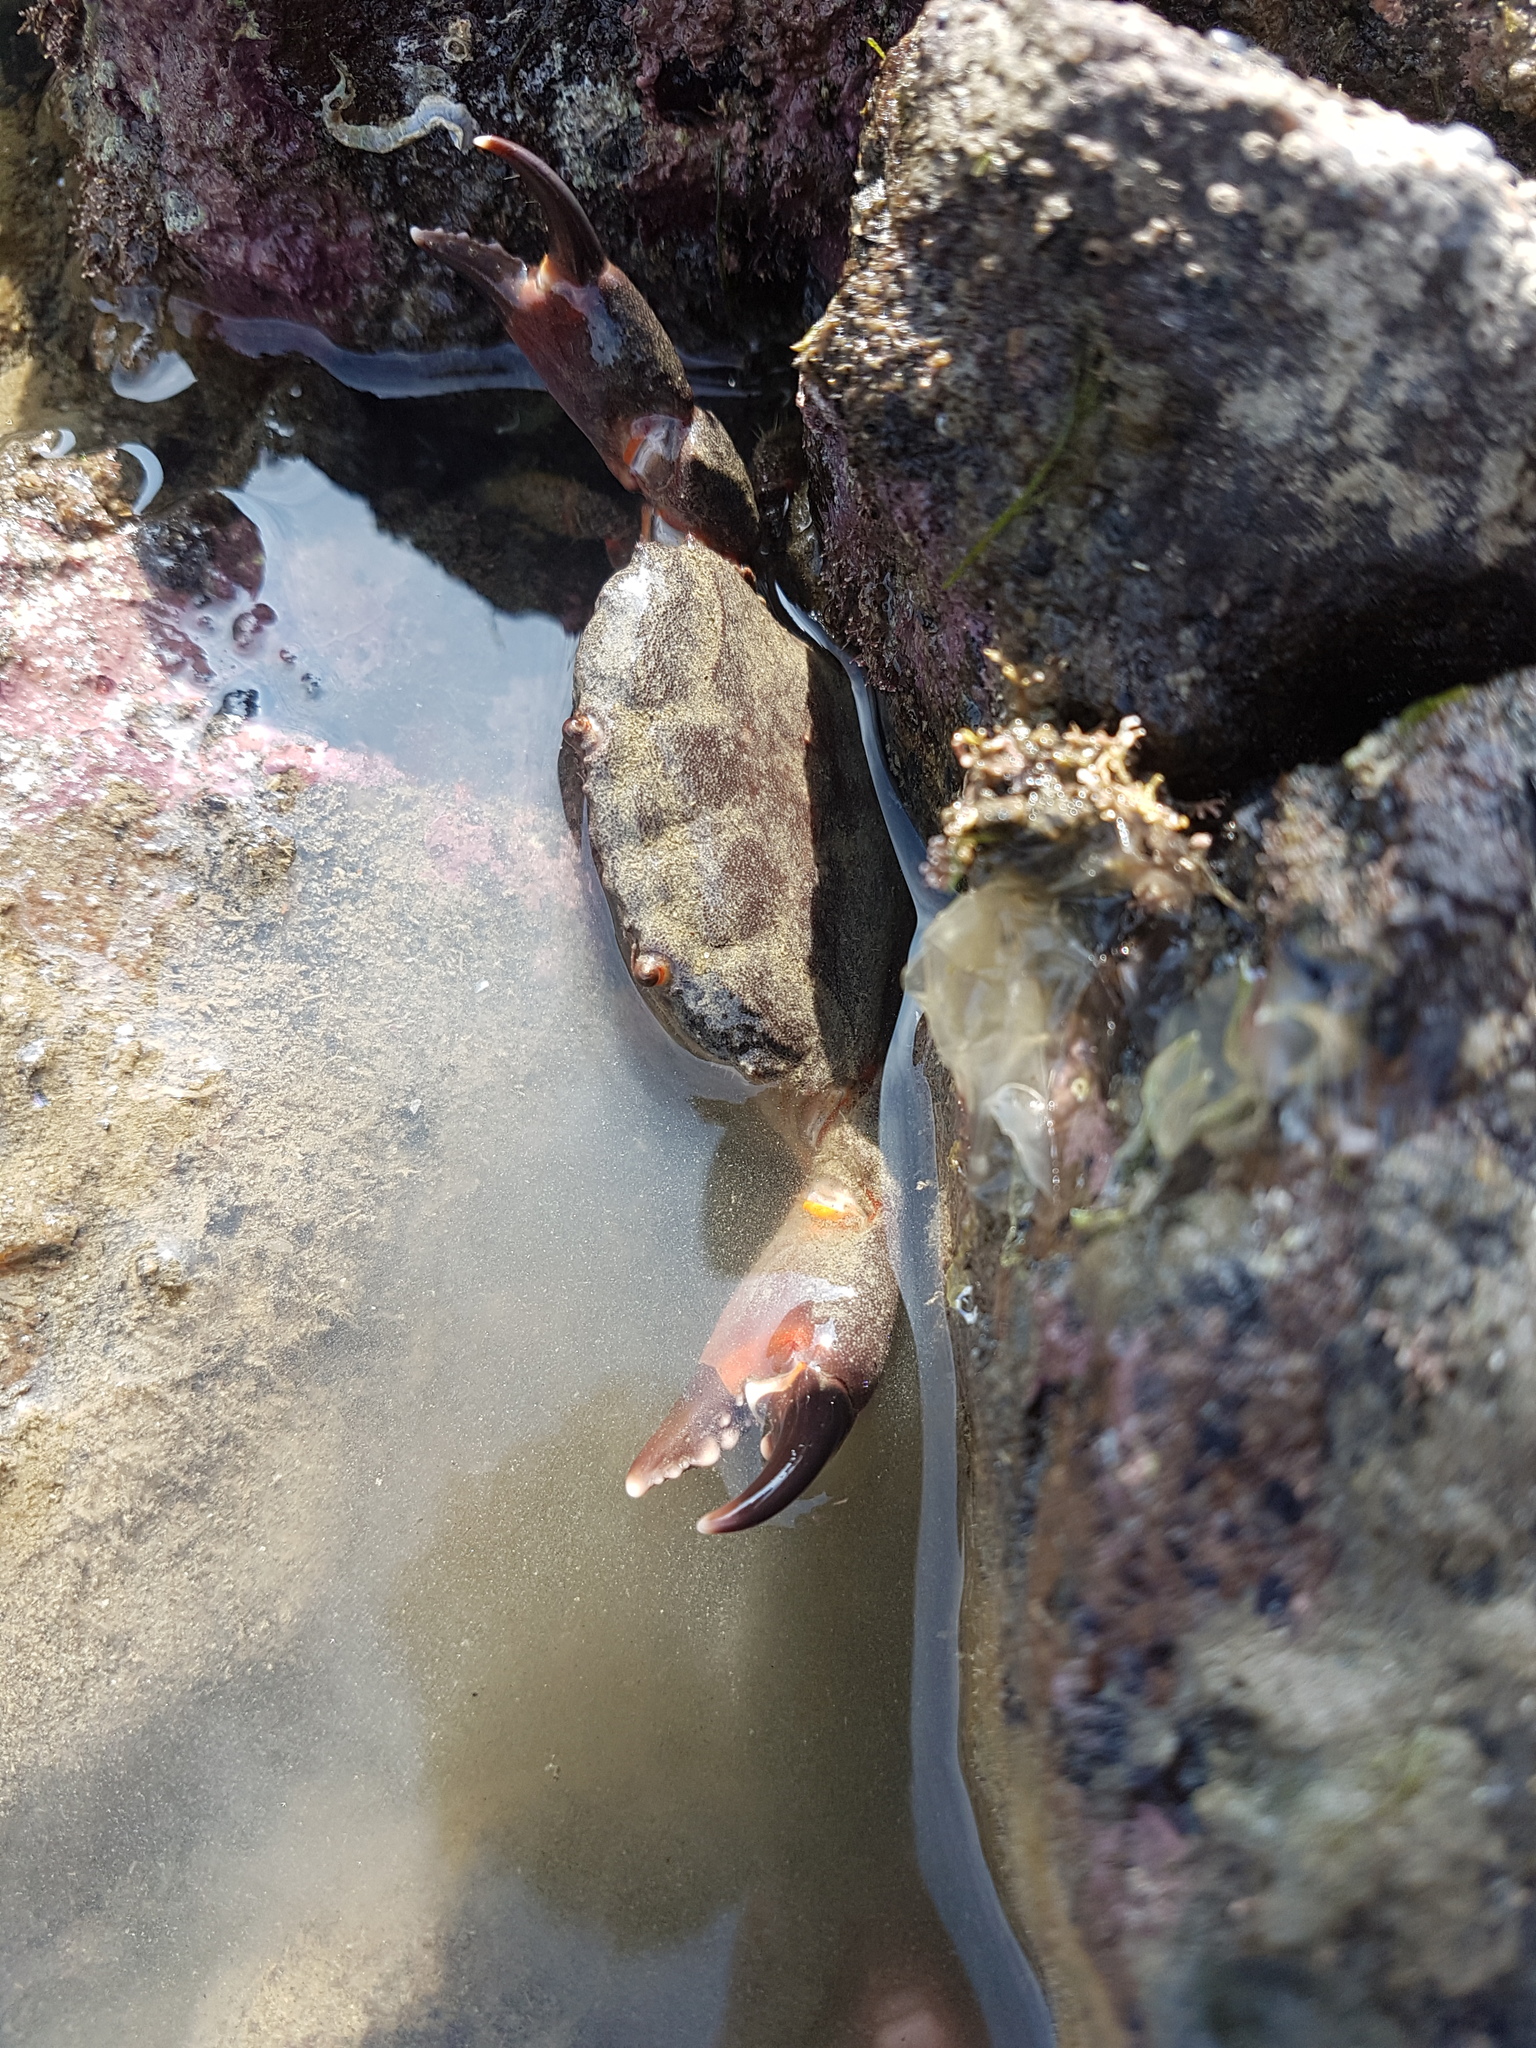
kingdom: Animalia
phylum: Arthropoda
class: Malacostraca
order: Decapoda
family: Oziidae
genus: Ozius
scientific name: Ozius deplanatus
